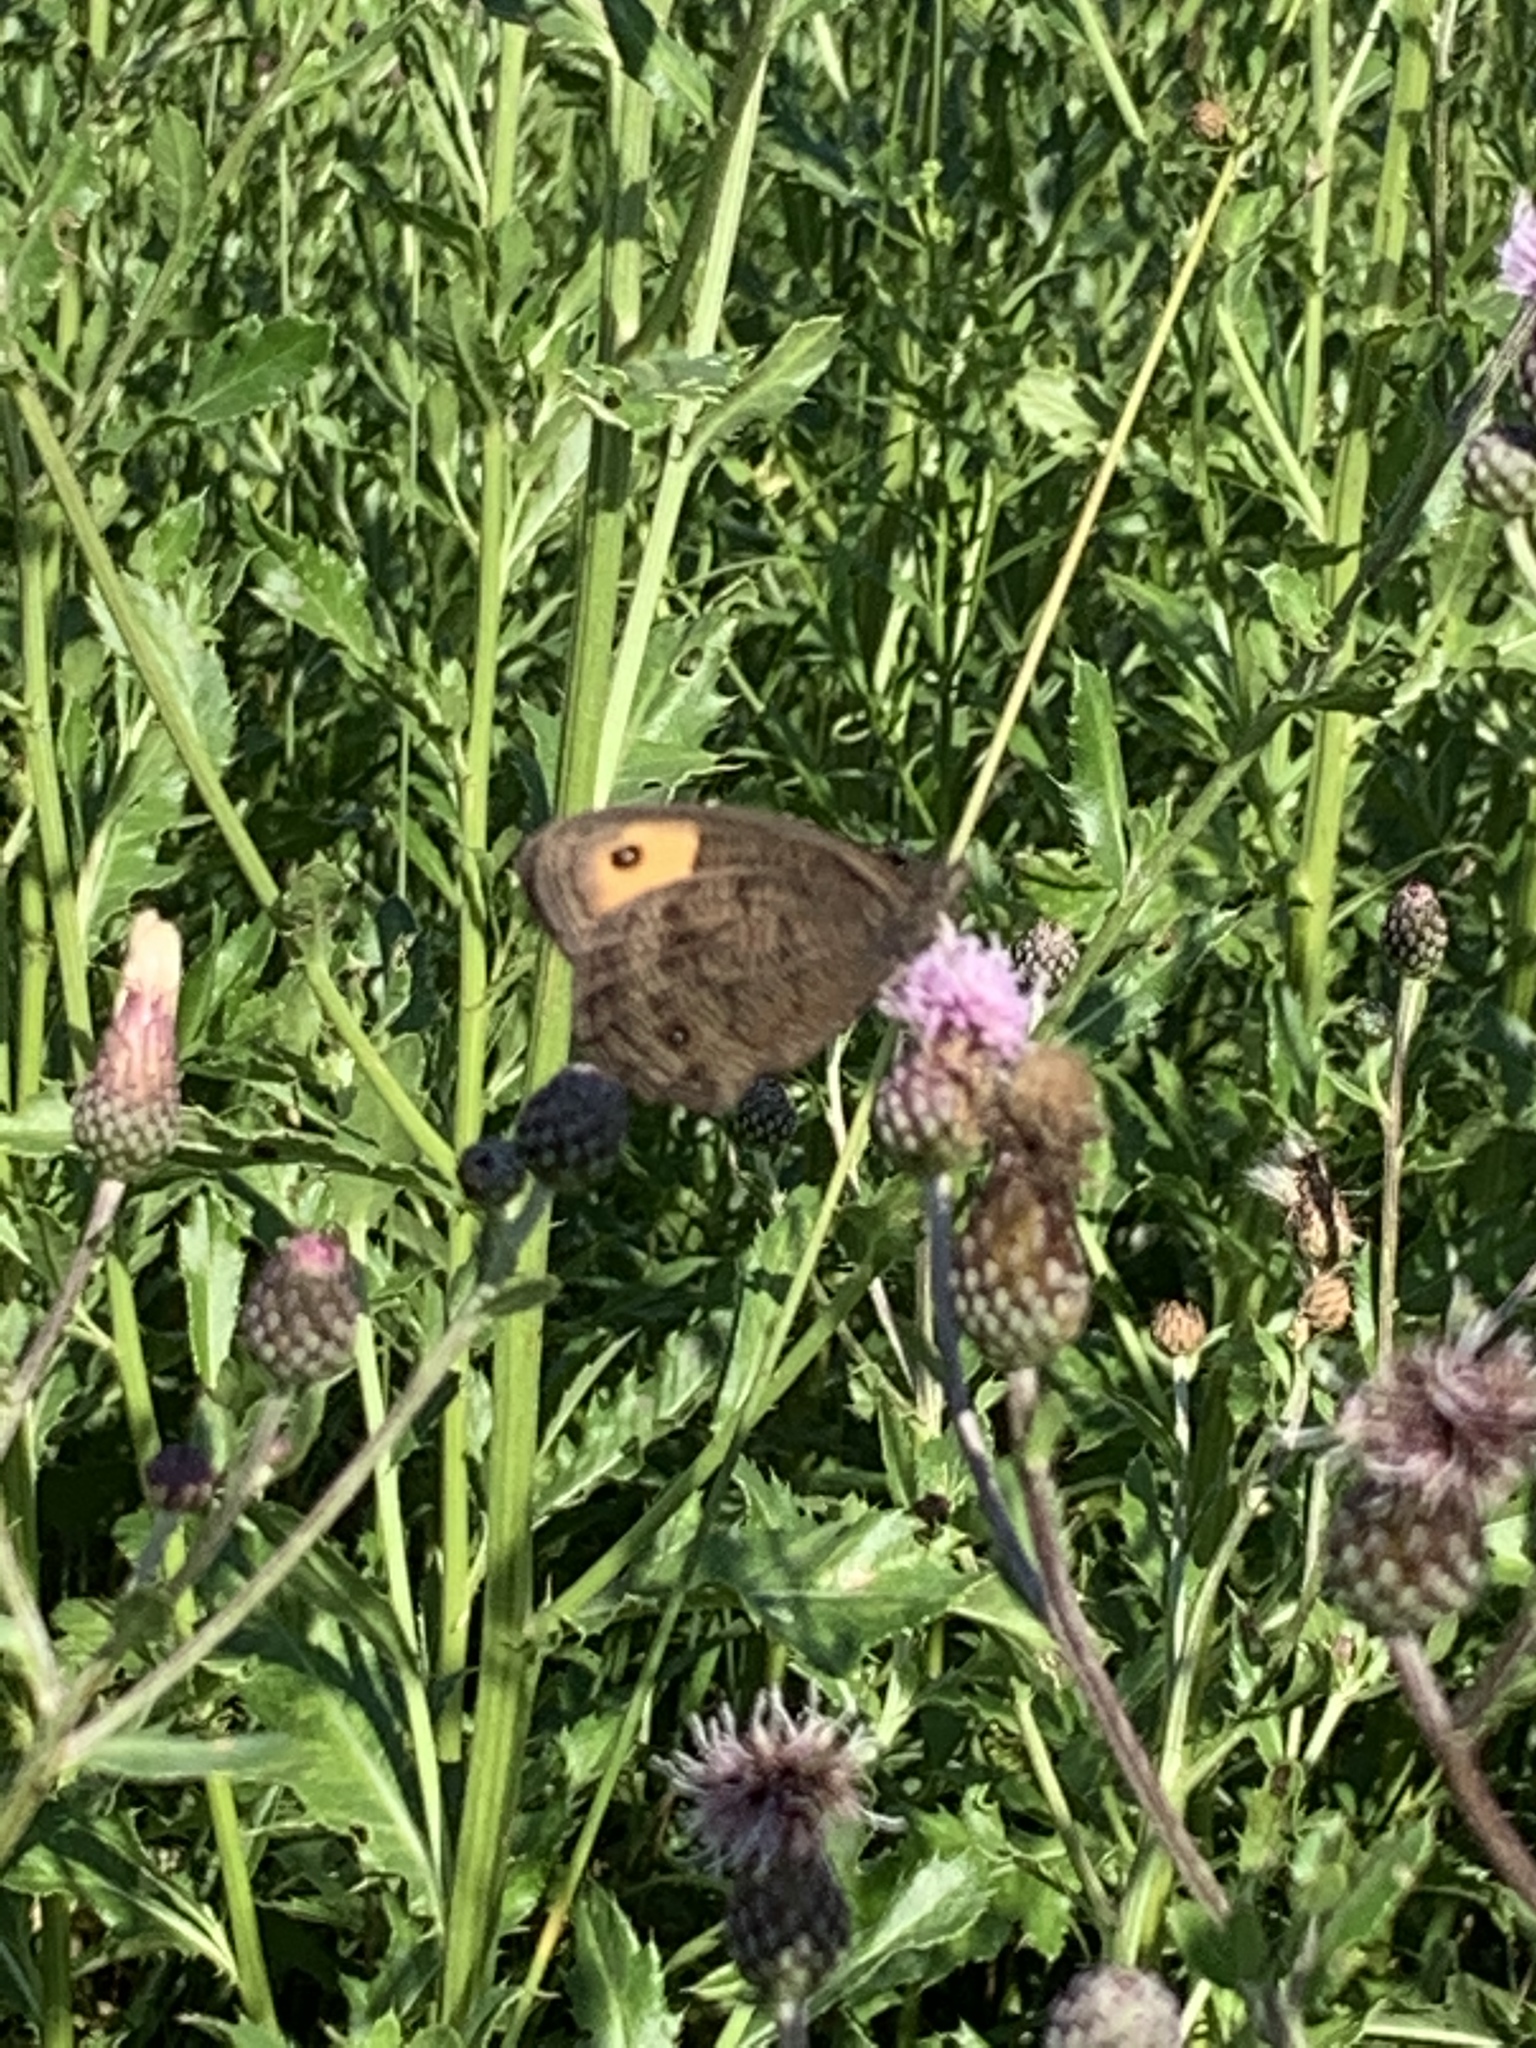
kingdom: Animalia
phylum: Arthropoda
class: Insecta
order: Lepidoptera
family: Nymphalidae
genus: Cercyonis
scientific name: Cercyonis pegala
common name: Common wood-nymph
